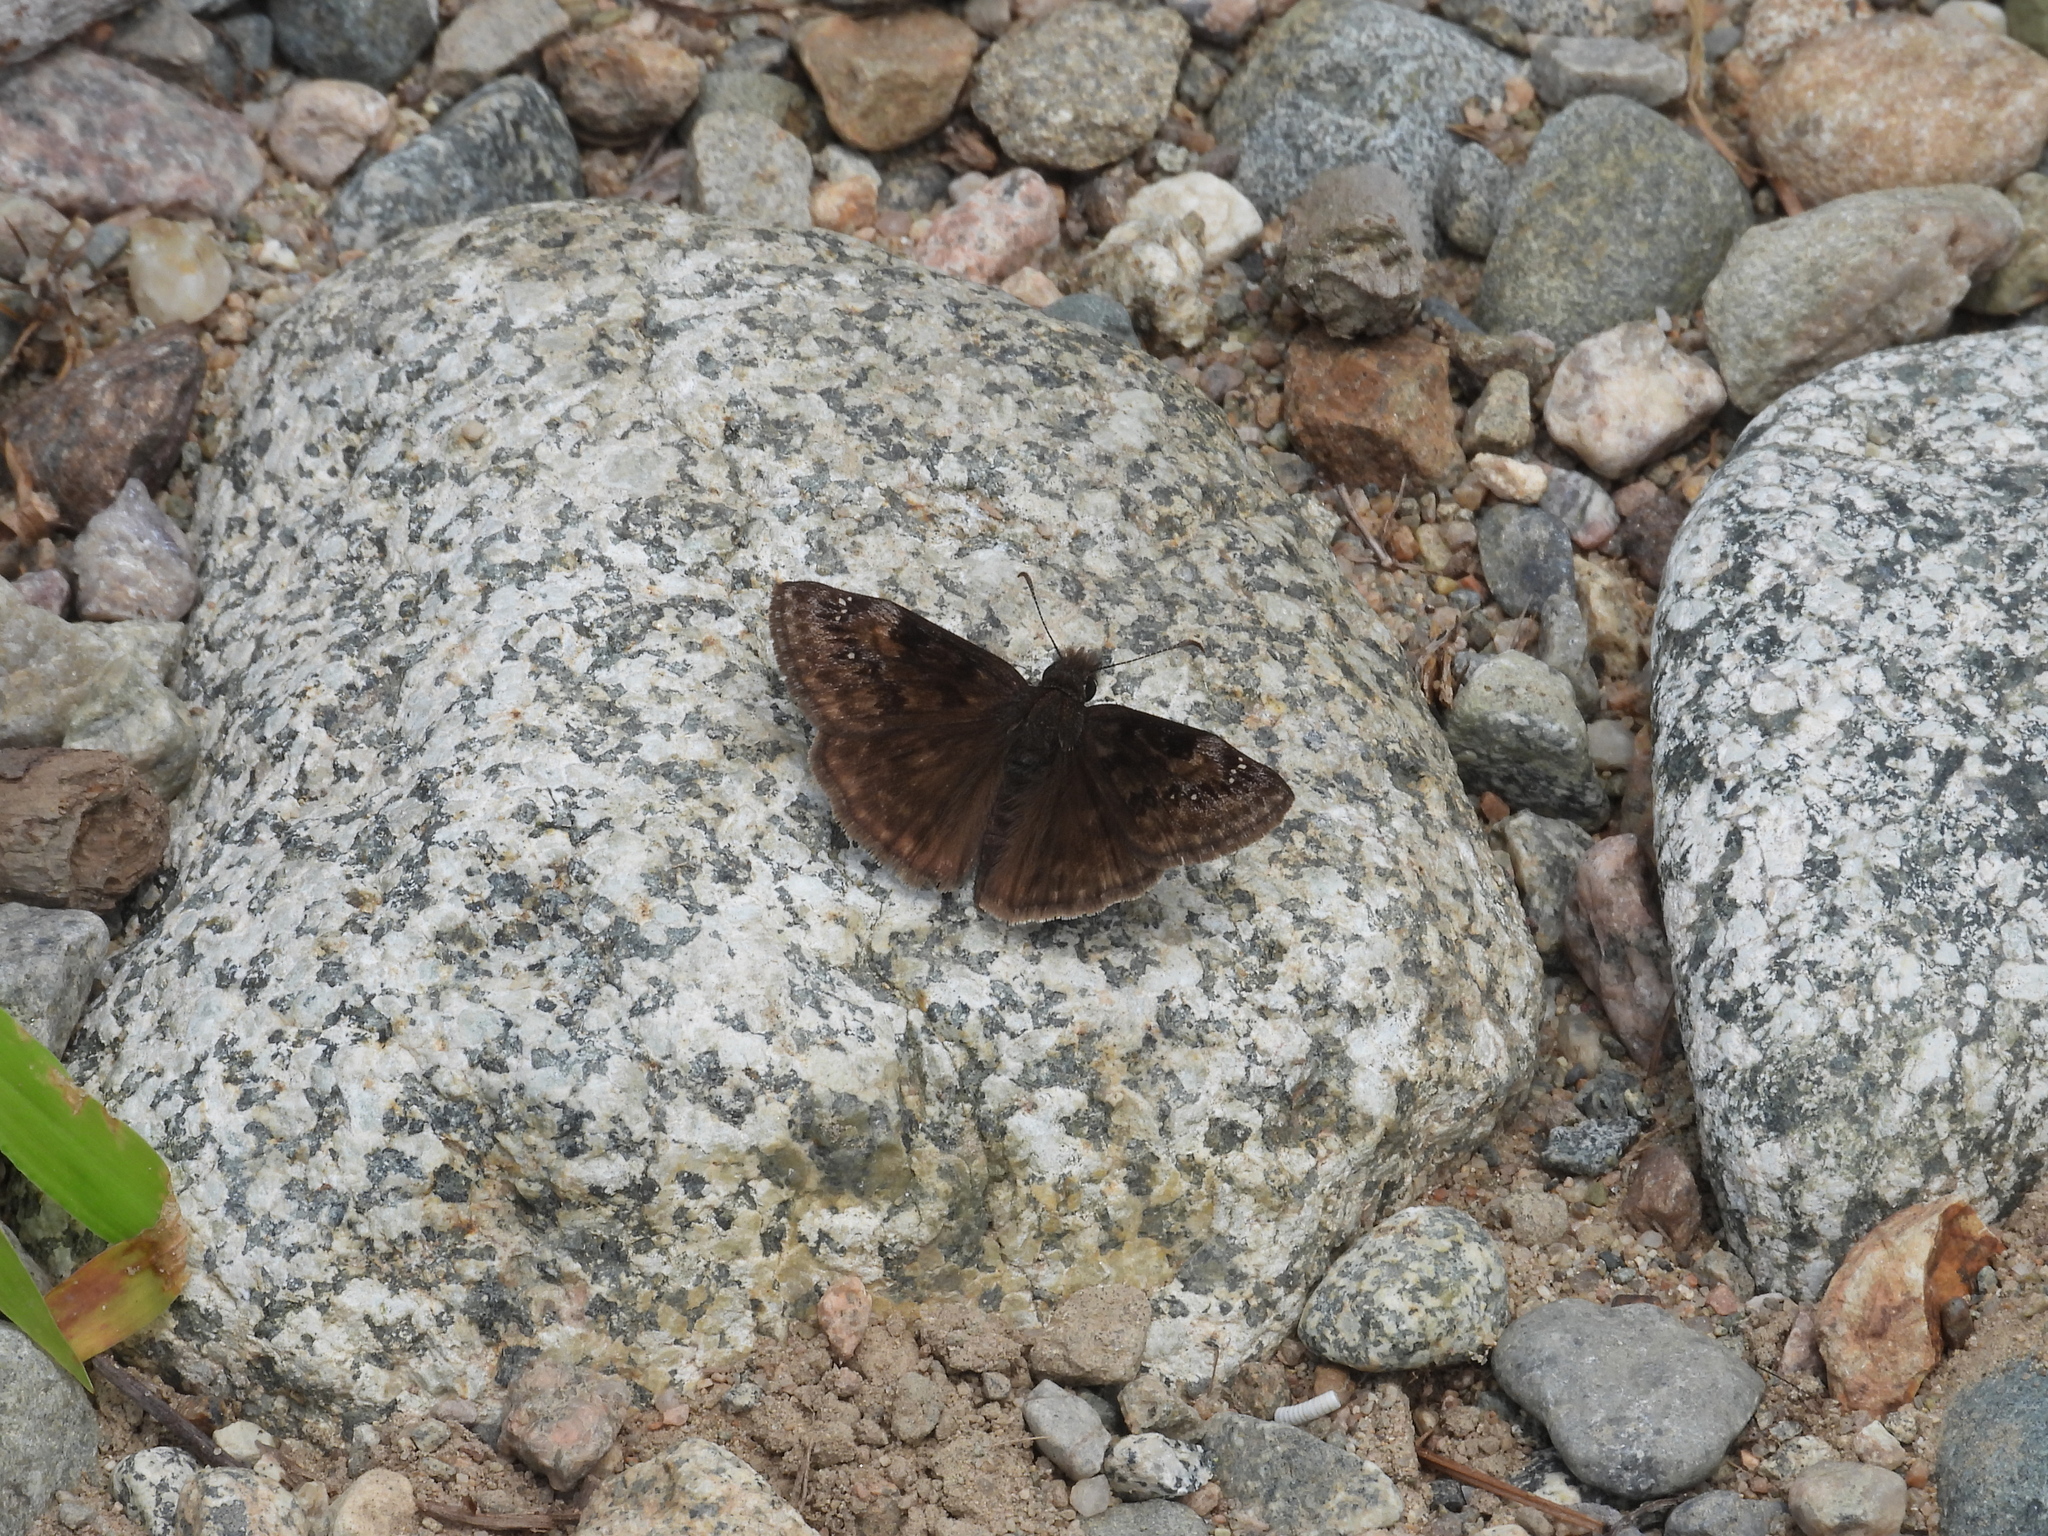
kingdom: Animalia
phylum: Arthropoda
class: Insecta
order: Lepidoptera
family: Hesperiidae
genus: Erynnis
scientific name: Erynnis baptisiae
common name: Wild indigo duskywing
